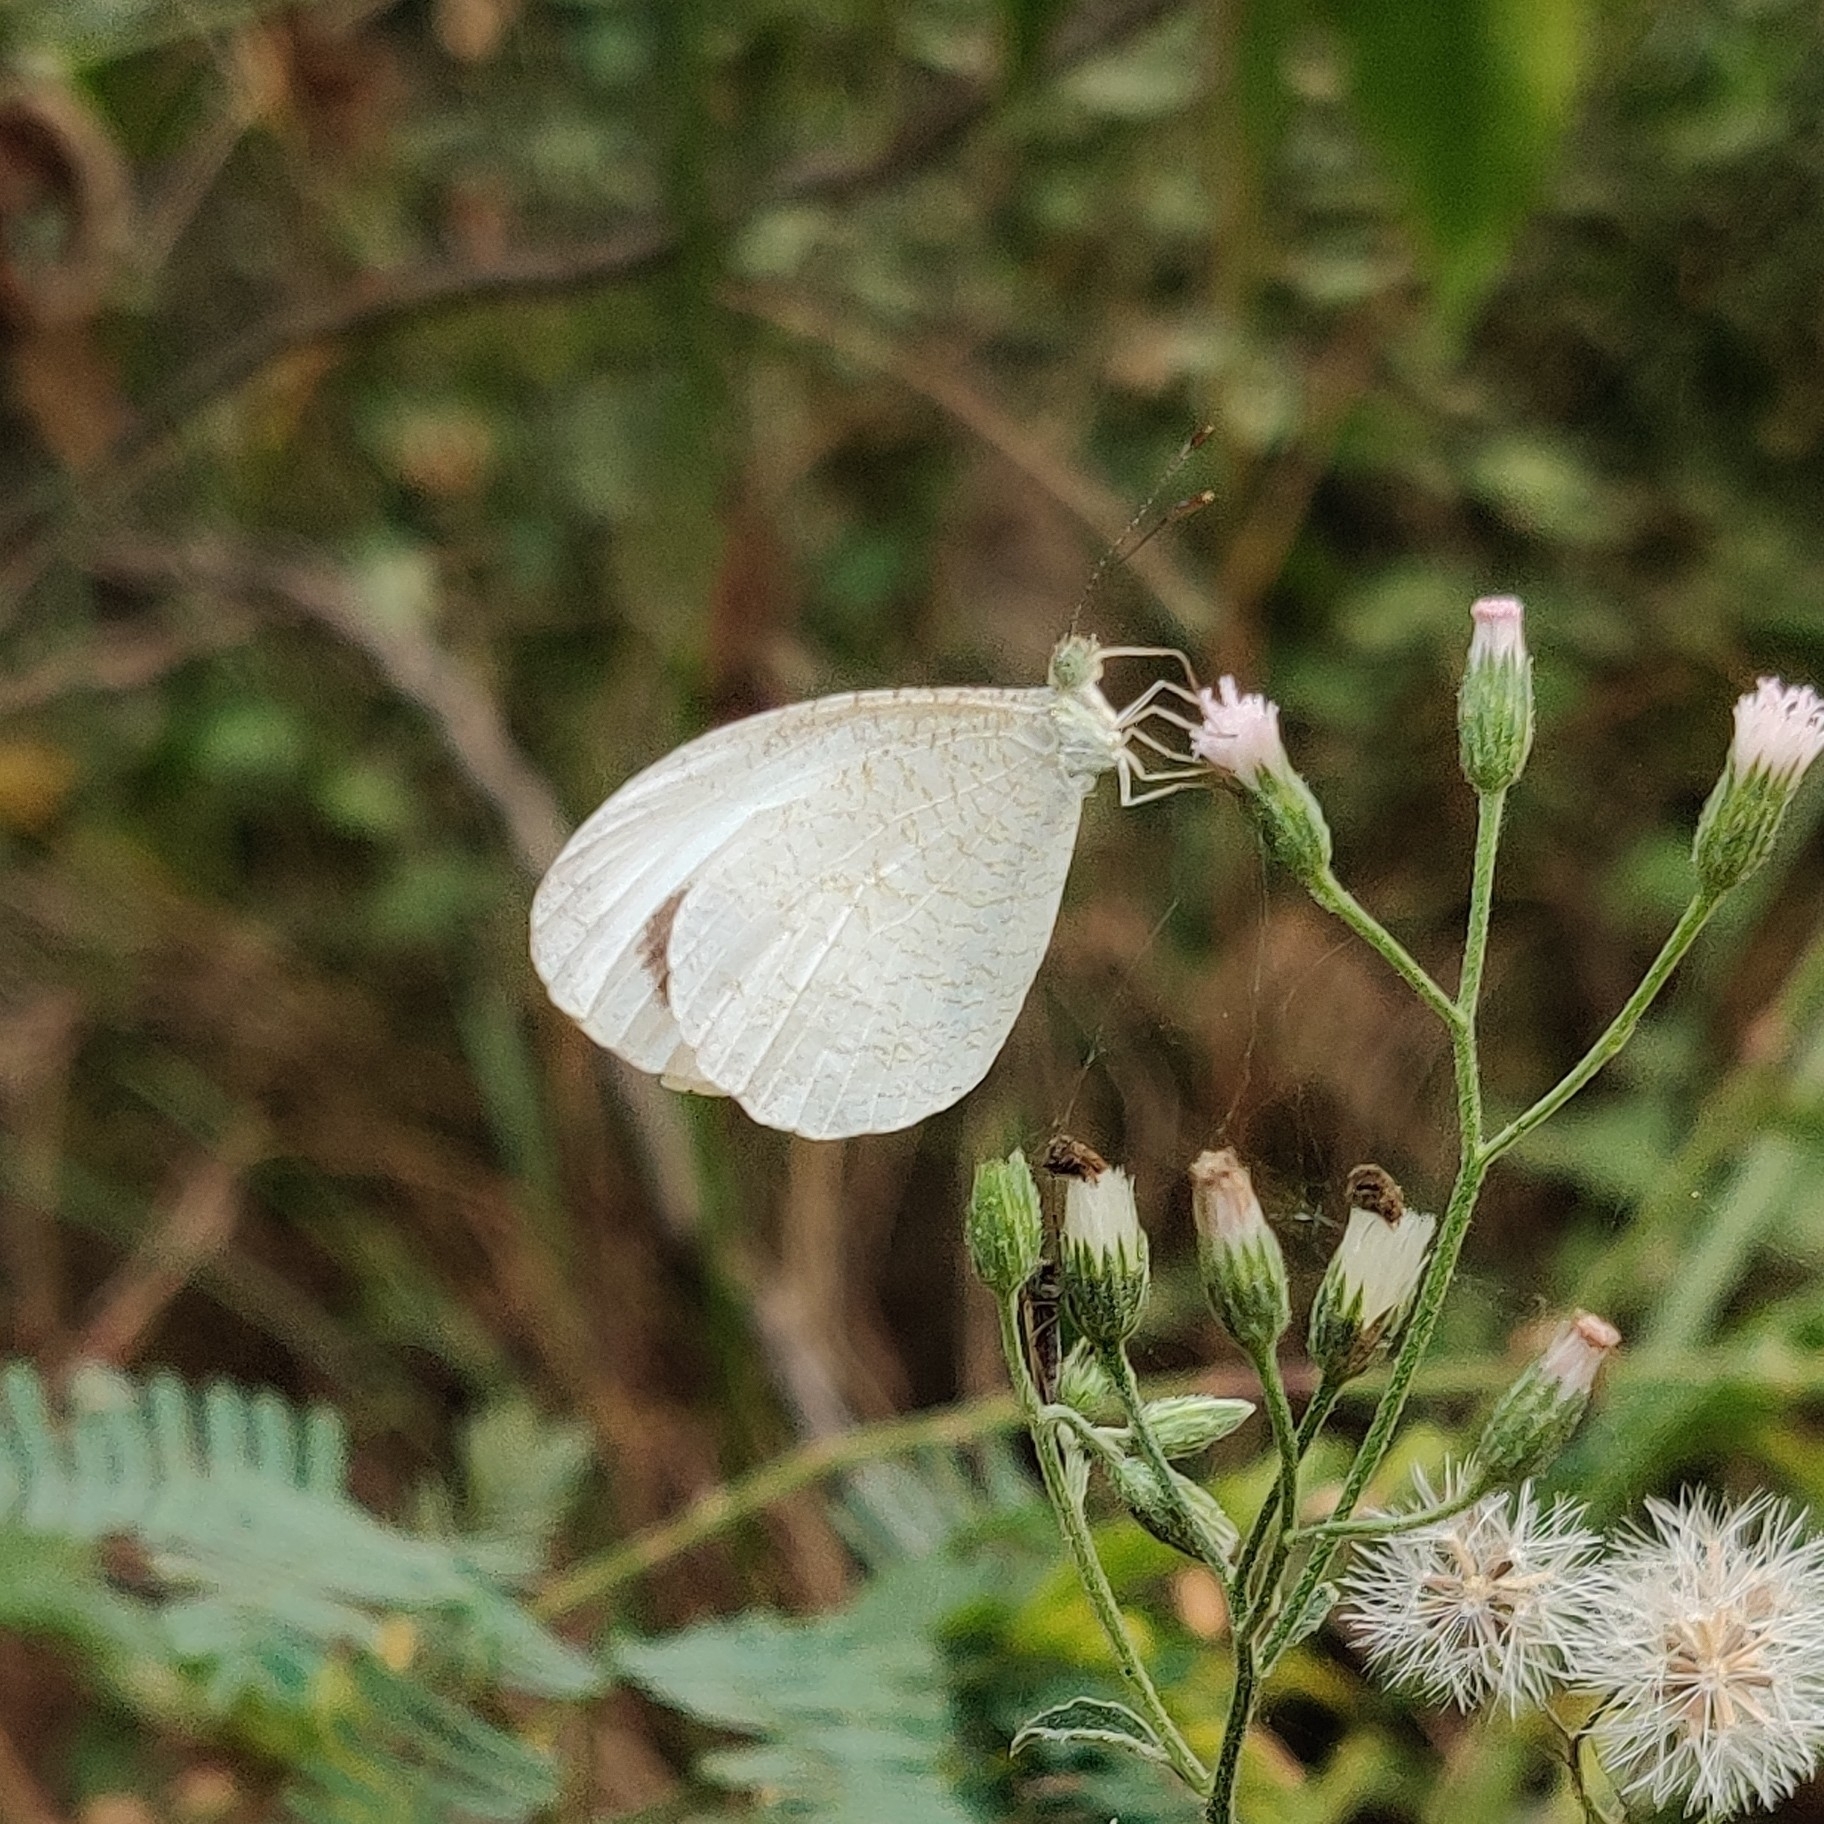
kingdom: Animalia
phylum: Arthropoda
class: Insecta
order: Lepidoptera
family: Pieridae
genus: Leptosia
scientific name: Leptosia nina
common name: Psyche
